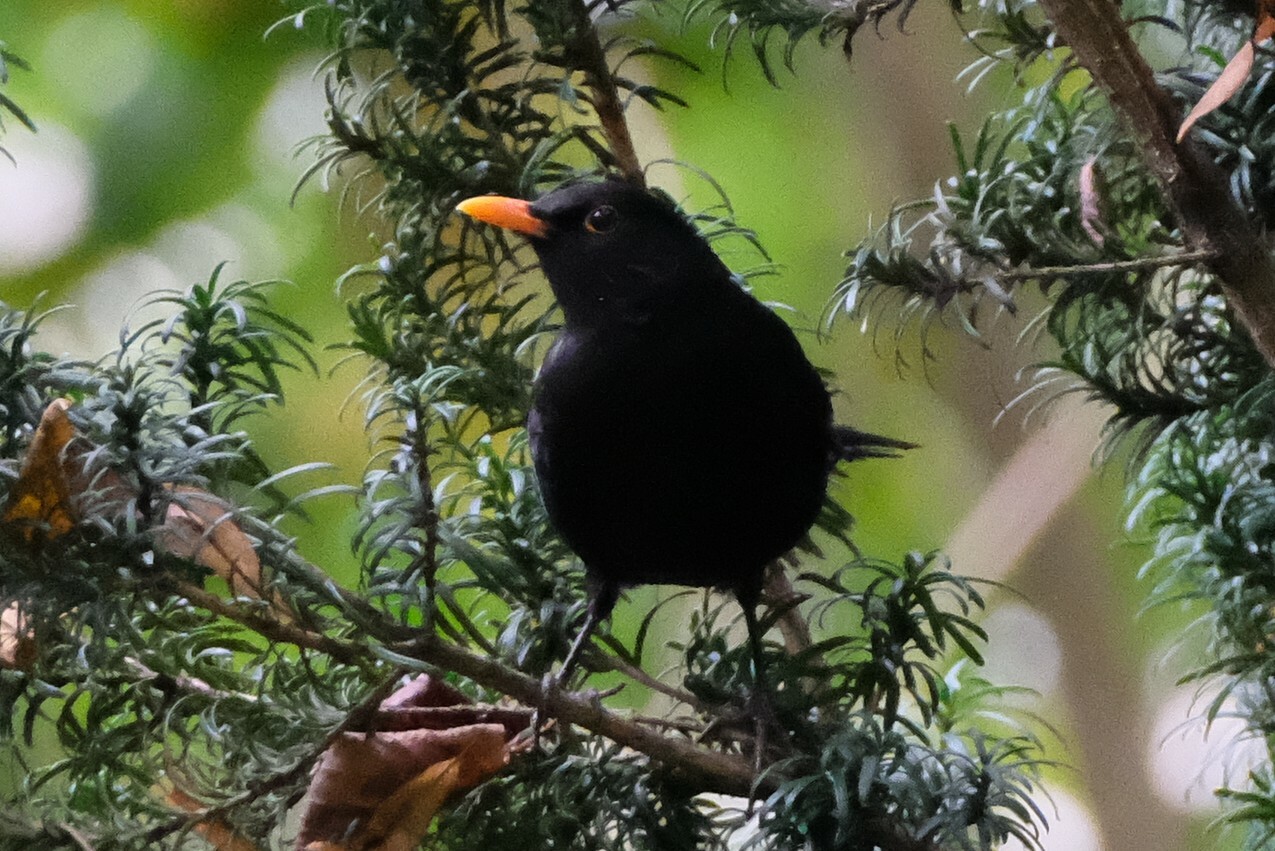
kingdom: Animalia
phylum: Chordata
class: Aves
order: Passeriformes
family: Turdidae
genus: Turdus
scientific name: Turdus merula
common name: Common blackbird
